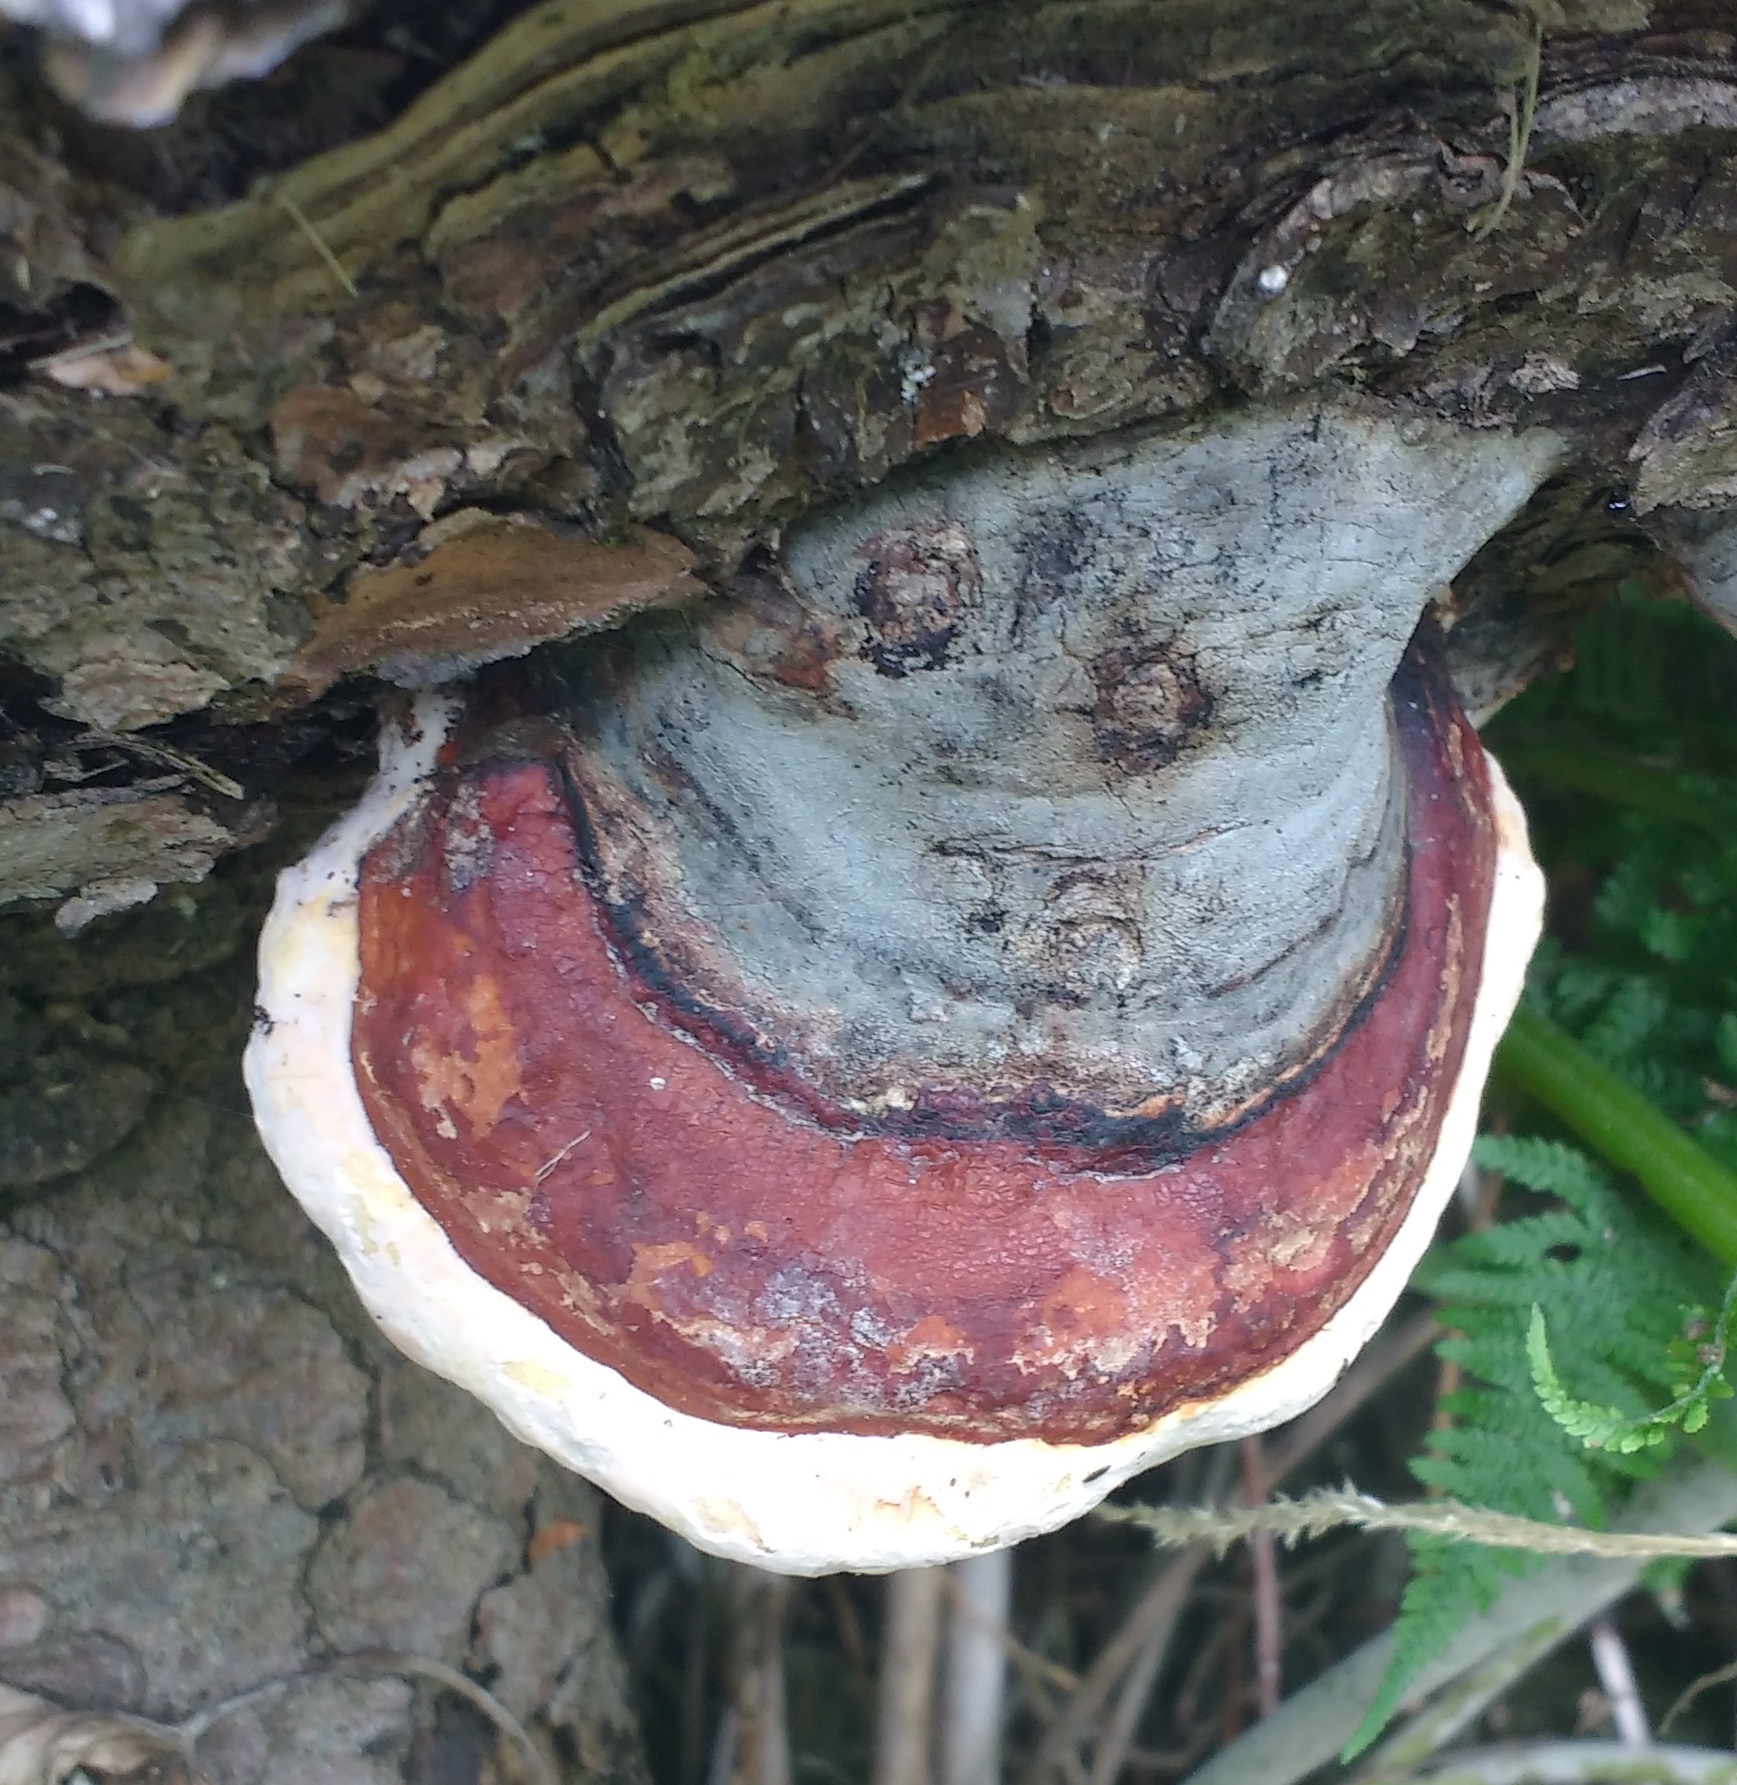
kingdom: Fungi
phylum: Basidiomycota
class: Agaricomycetes
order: Polyporales
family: Fomitopsidaceae
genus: Fomitopsis
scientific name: Fomitopsis pinicola
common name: Red-belted bracket
